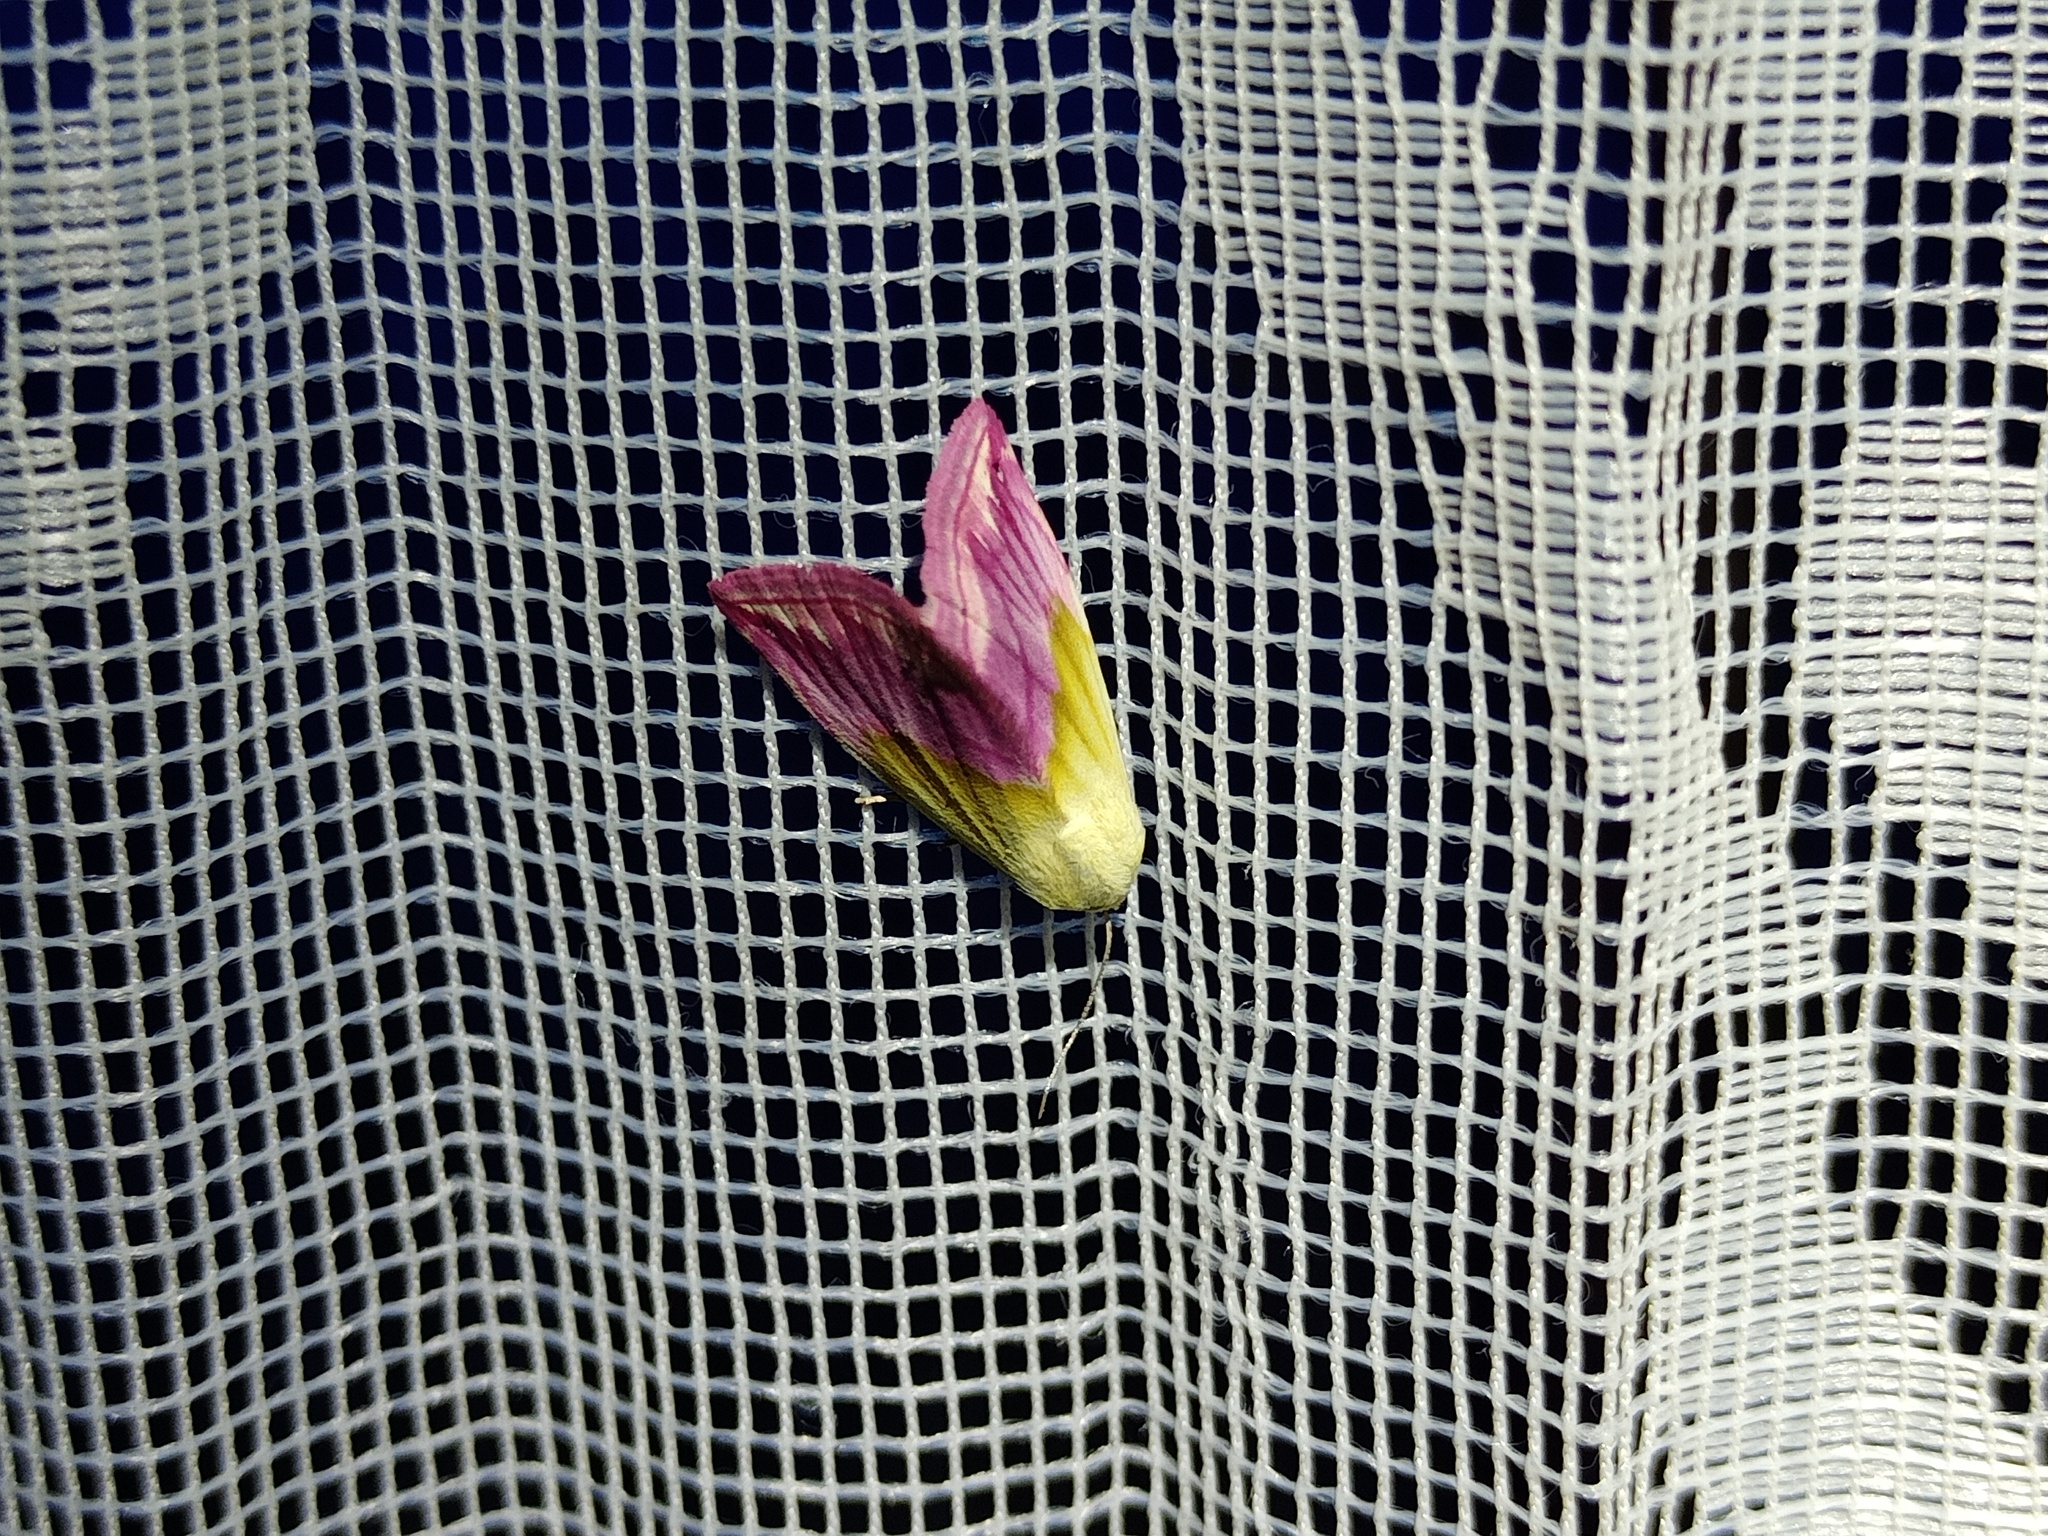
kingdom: Animalia
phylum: Arthropoda
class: Insecta
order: Lepidoptera
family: Noctuidae
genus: Eublemma
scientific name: Eublemma purpurina
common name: Beautiful marbled
